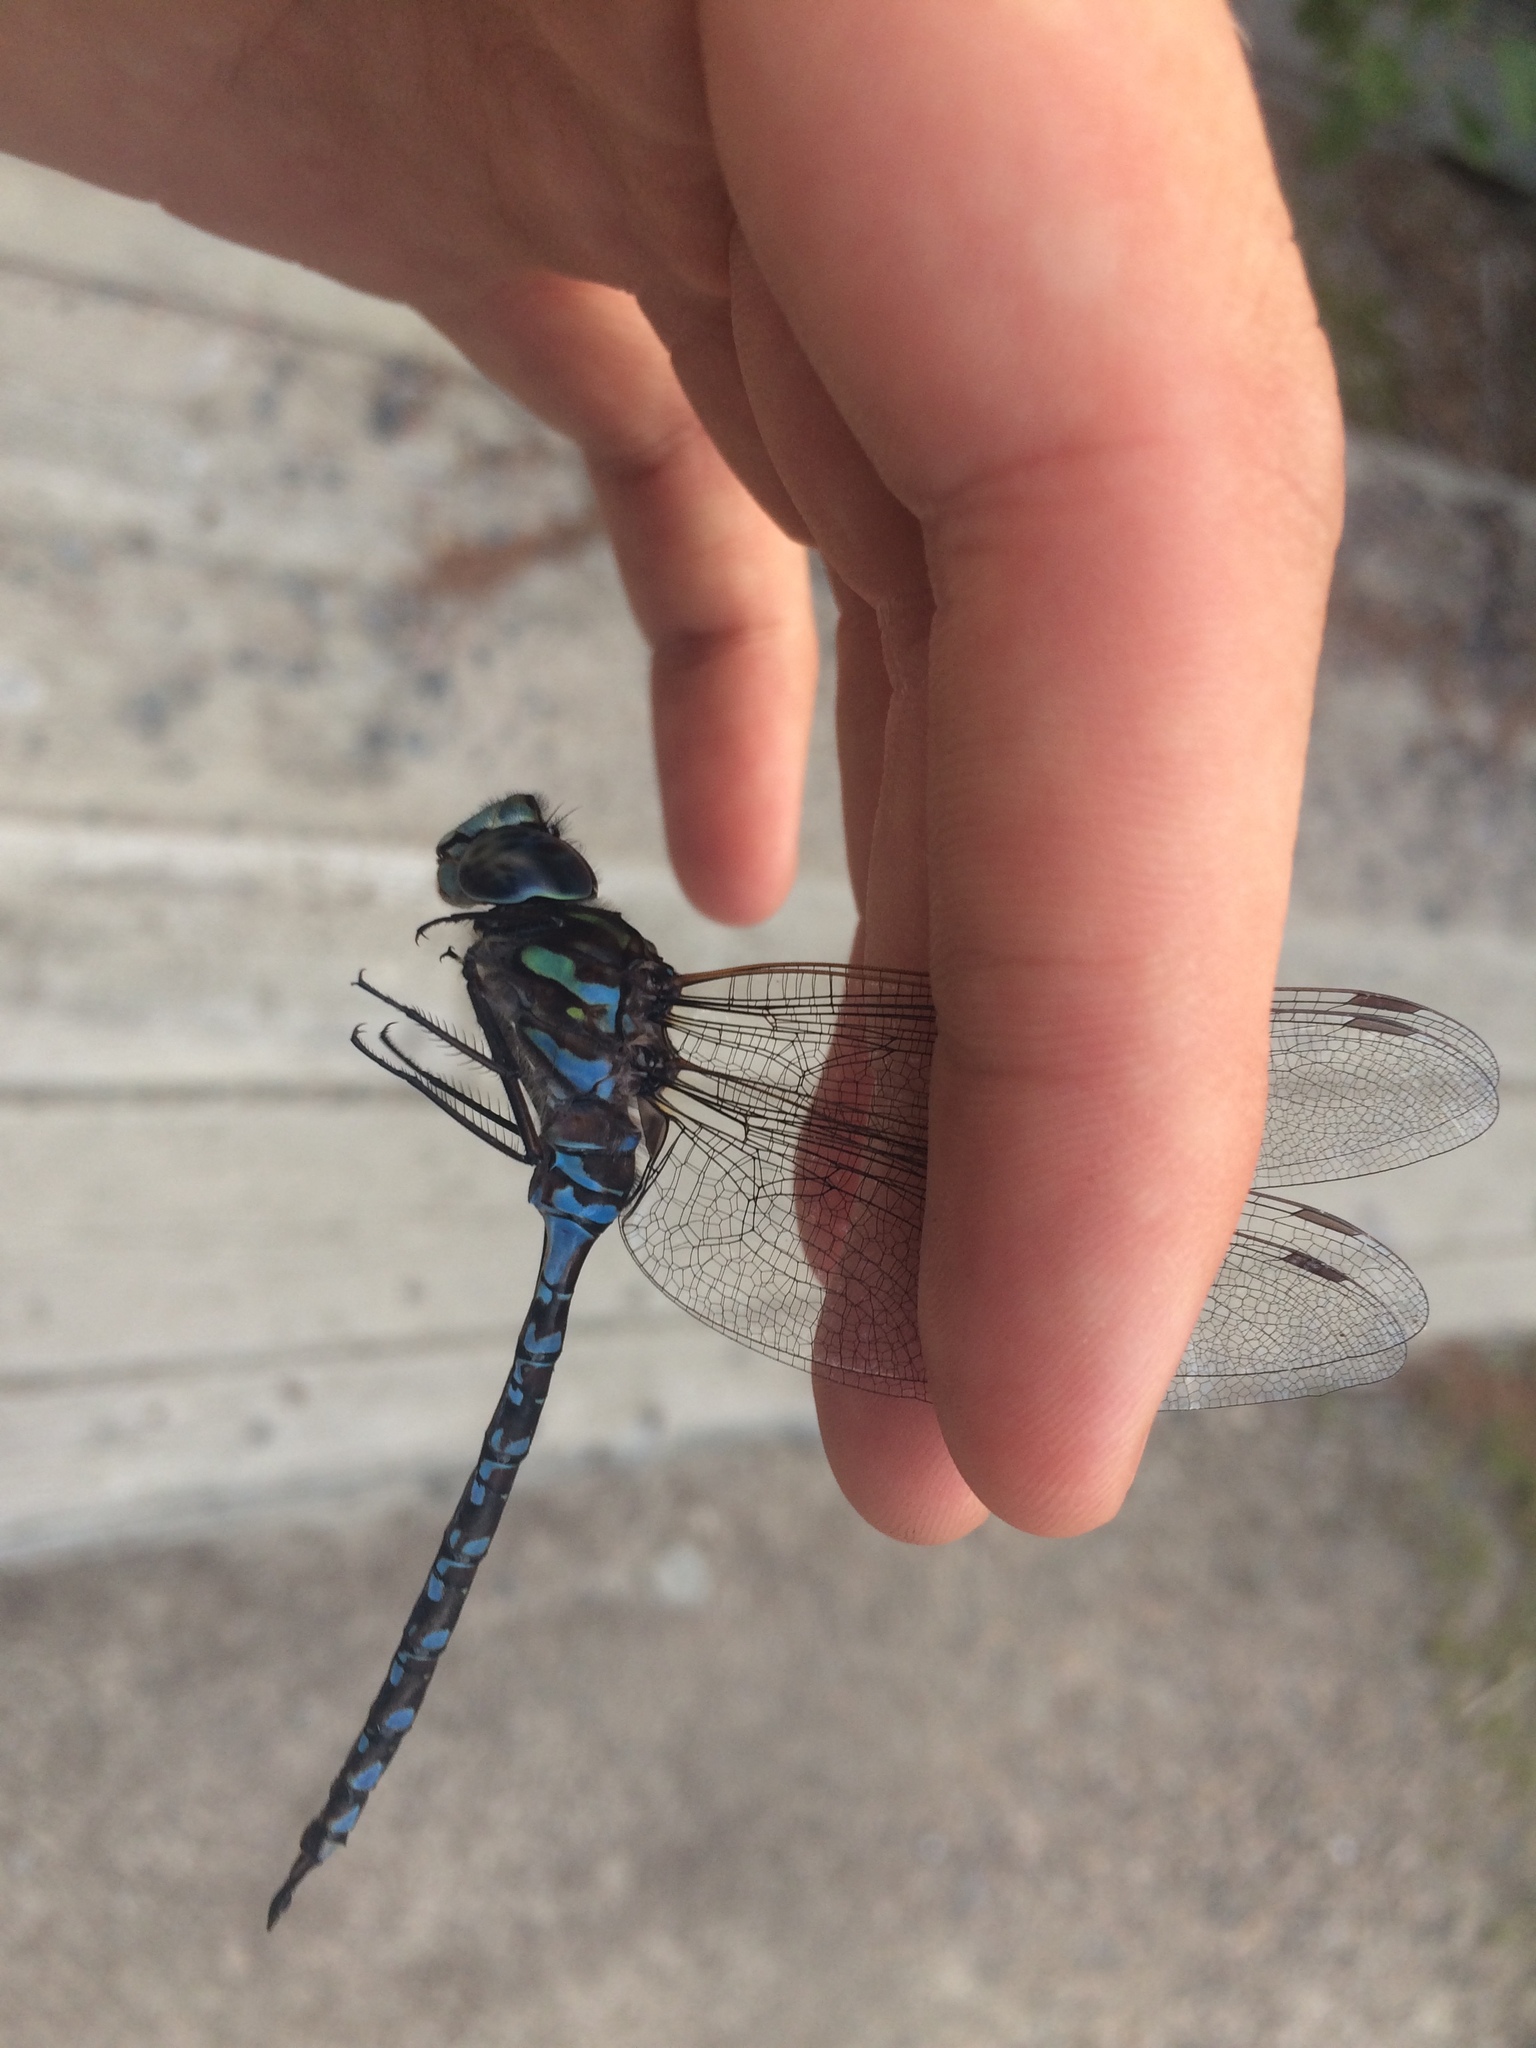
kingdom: Animalia
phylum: Arthropoda
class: Insecta
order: Odonata
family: Aeshnidae
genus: Aeshna
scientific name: Aeshna canadensis
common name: Canada darner
